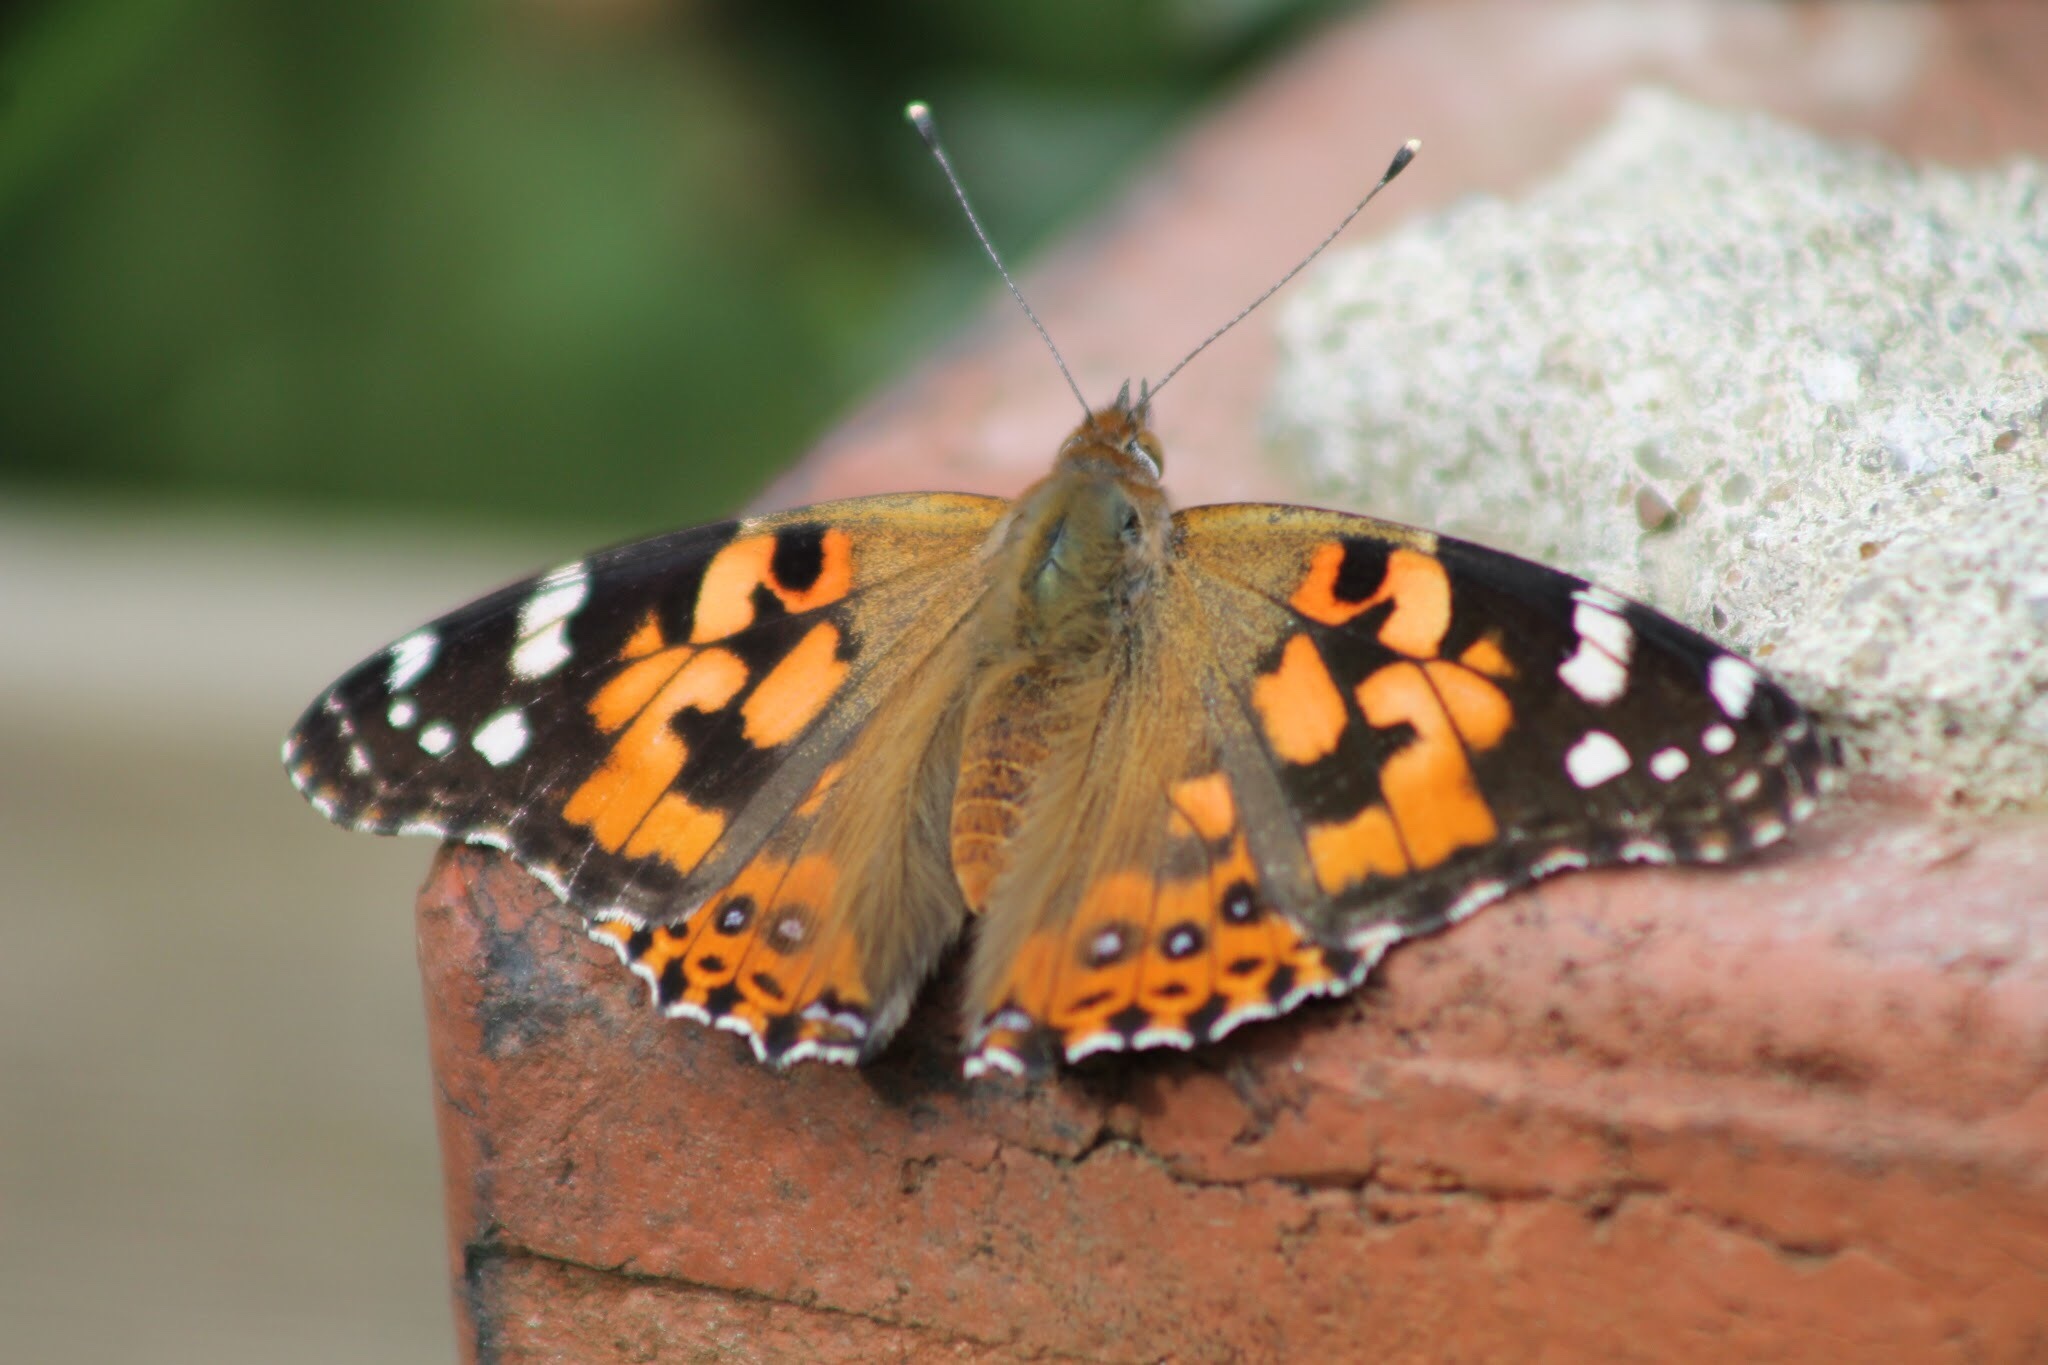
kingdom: Animalia
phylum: Arthropoda
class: Insecta
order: Lepidoptera
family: Nymphalidae
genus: Vanessa
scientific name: Vanessa cardui
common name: Painted lady
